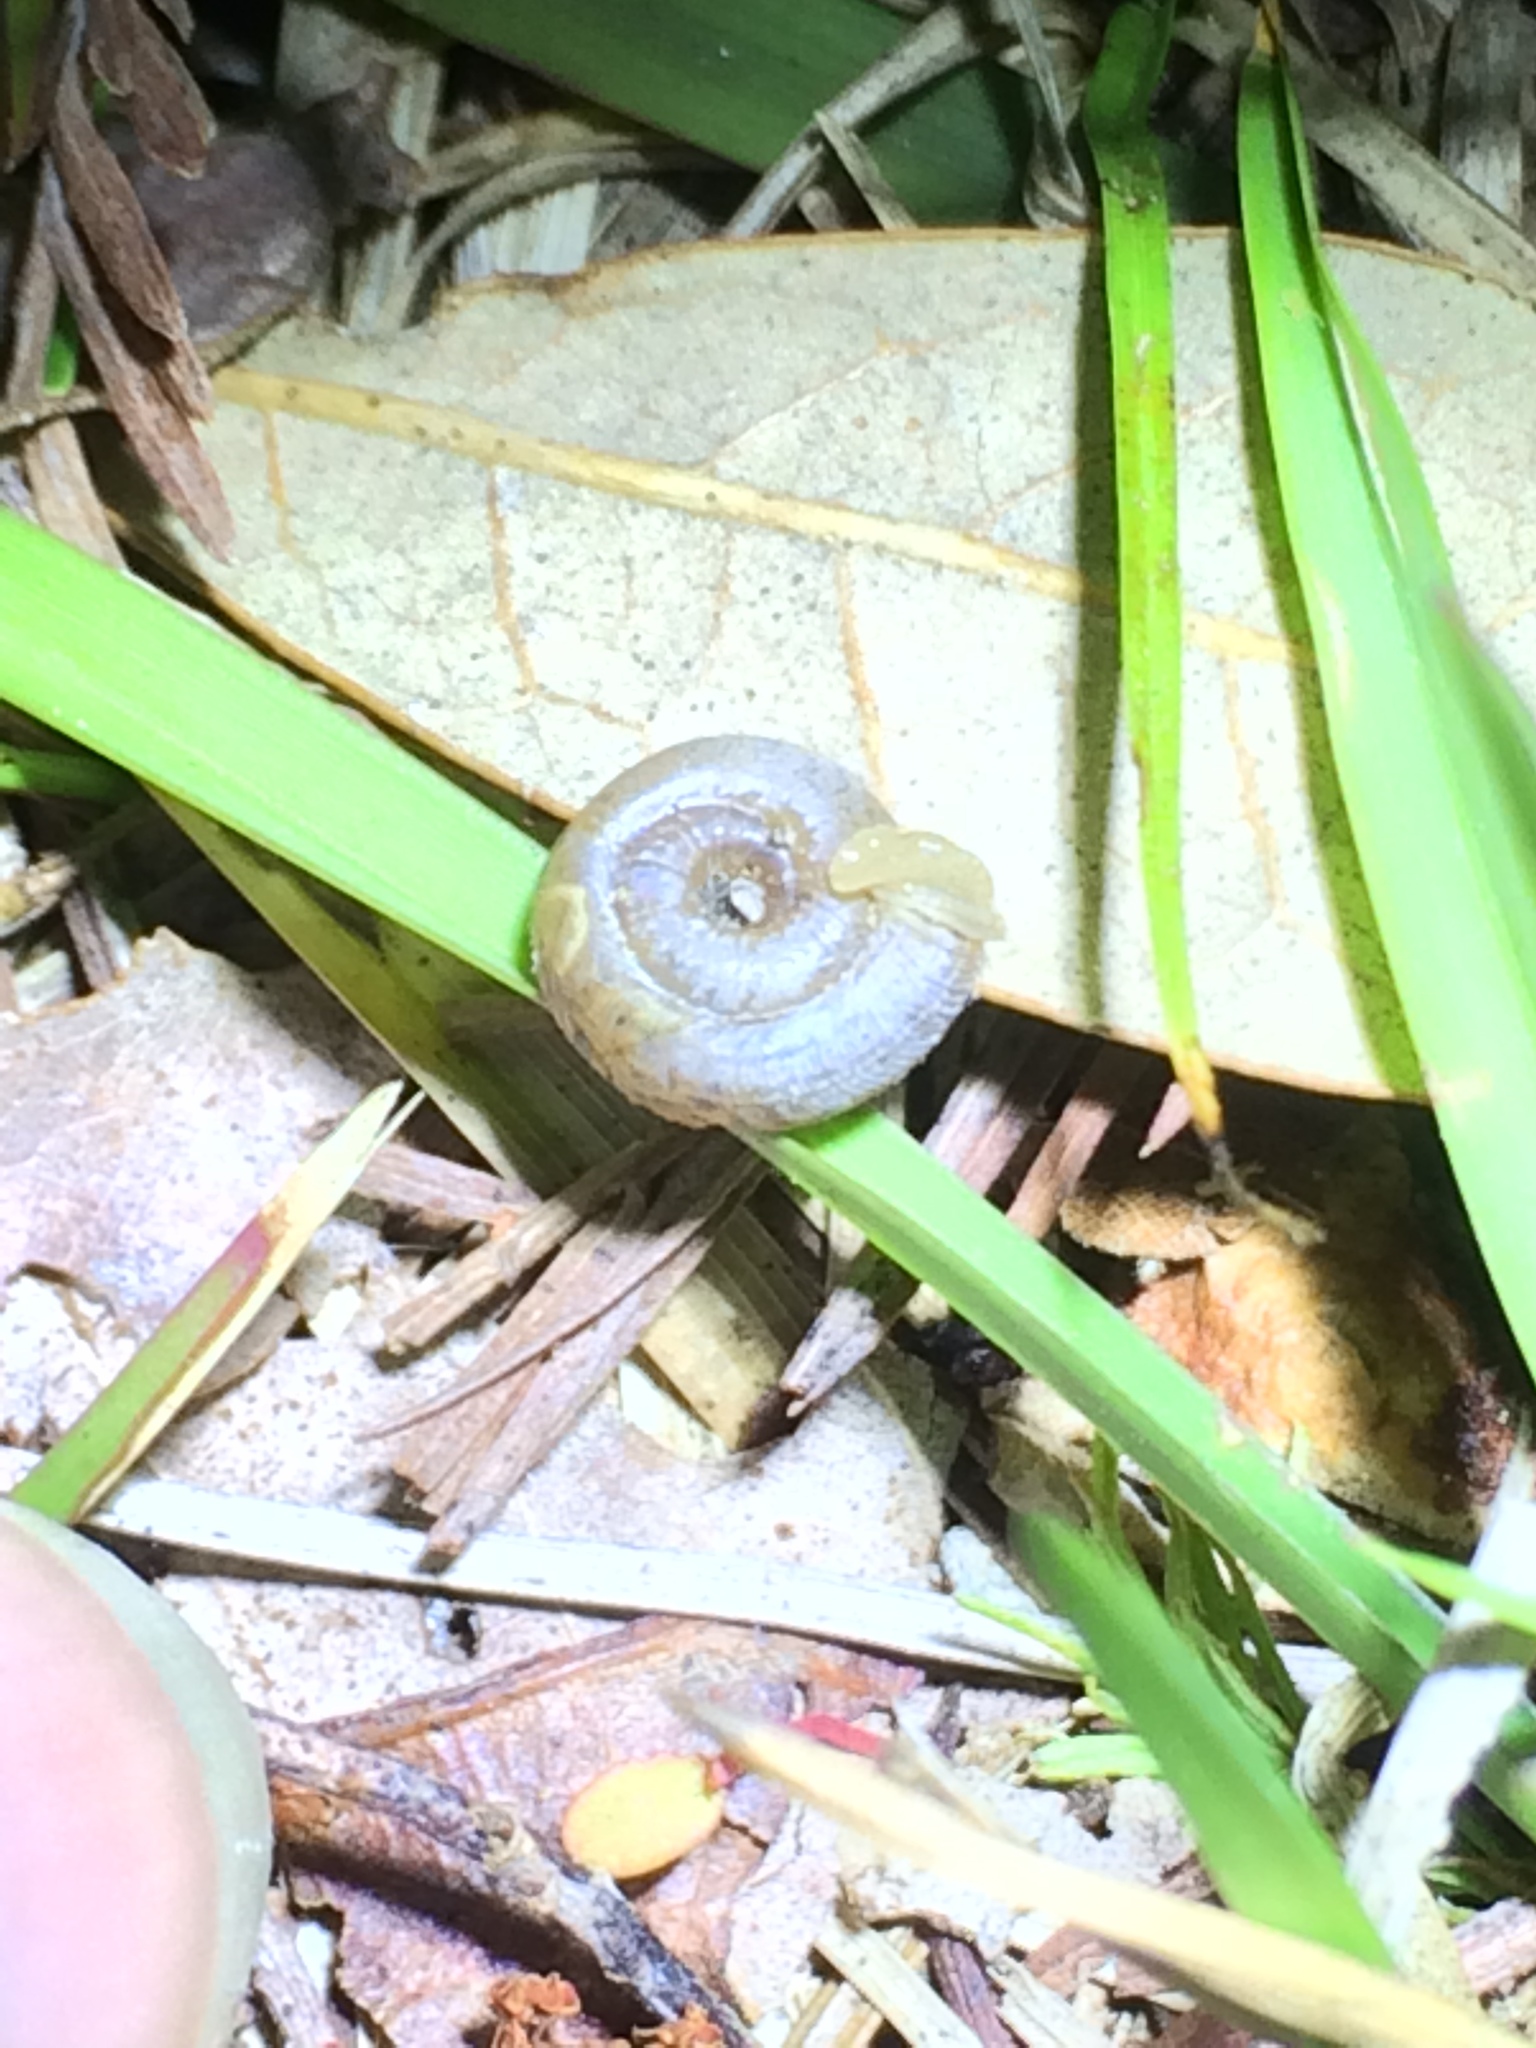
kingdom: Animalia
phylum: Mollusca
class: Gastropoda
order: Stylommatophora
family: Polygyridae
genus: Polygyra
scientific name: Polygyra cereolus
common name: Southern flatcone snail
